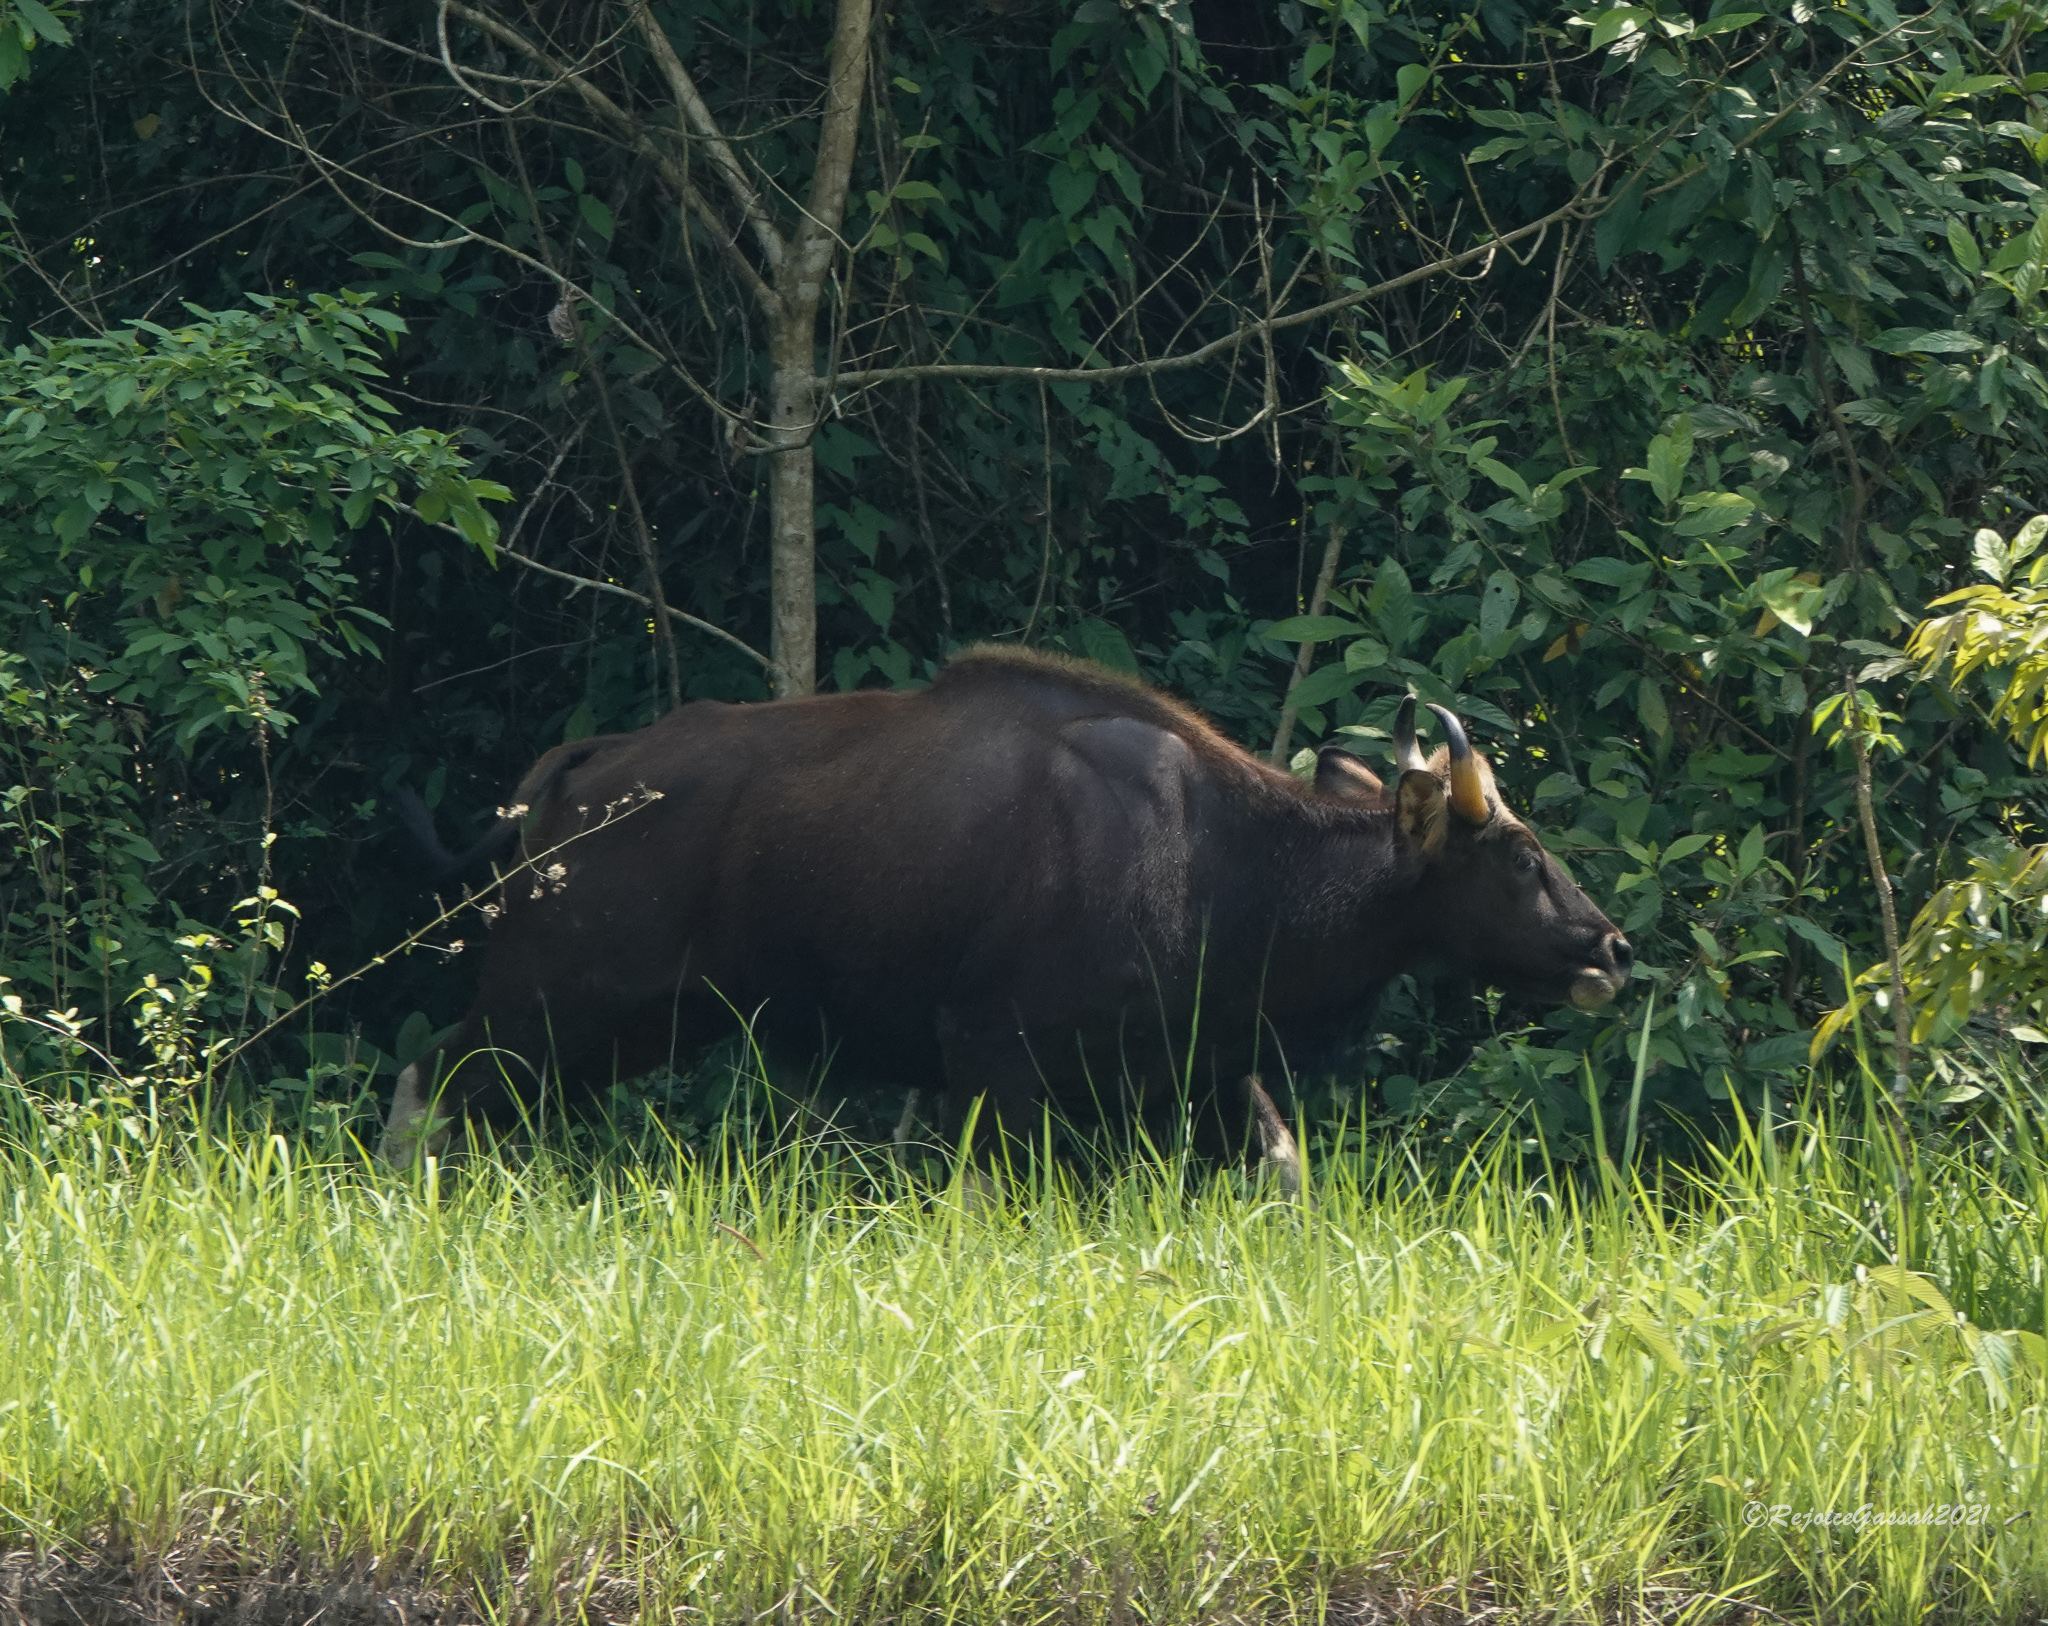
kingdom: Animalia
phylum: Chordata
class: Mammalia
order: Artiodactyla
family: Bovidae
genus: Bos
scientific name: Bos frontalis
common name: Gaur
